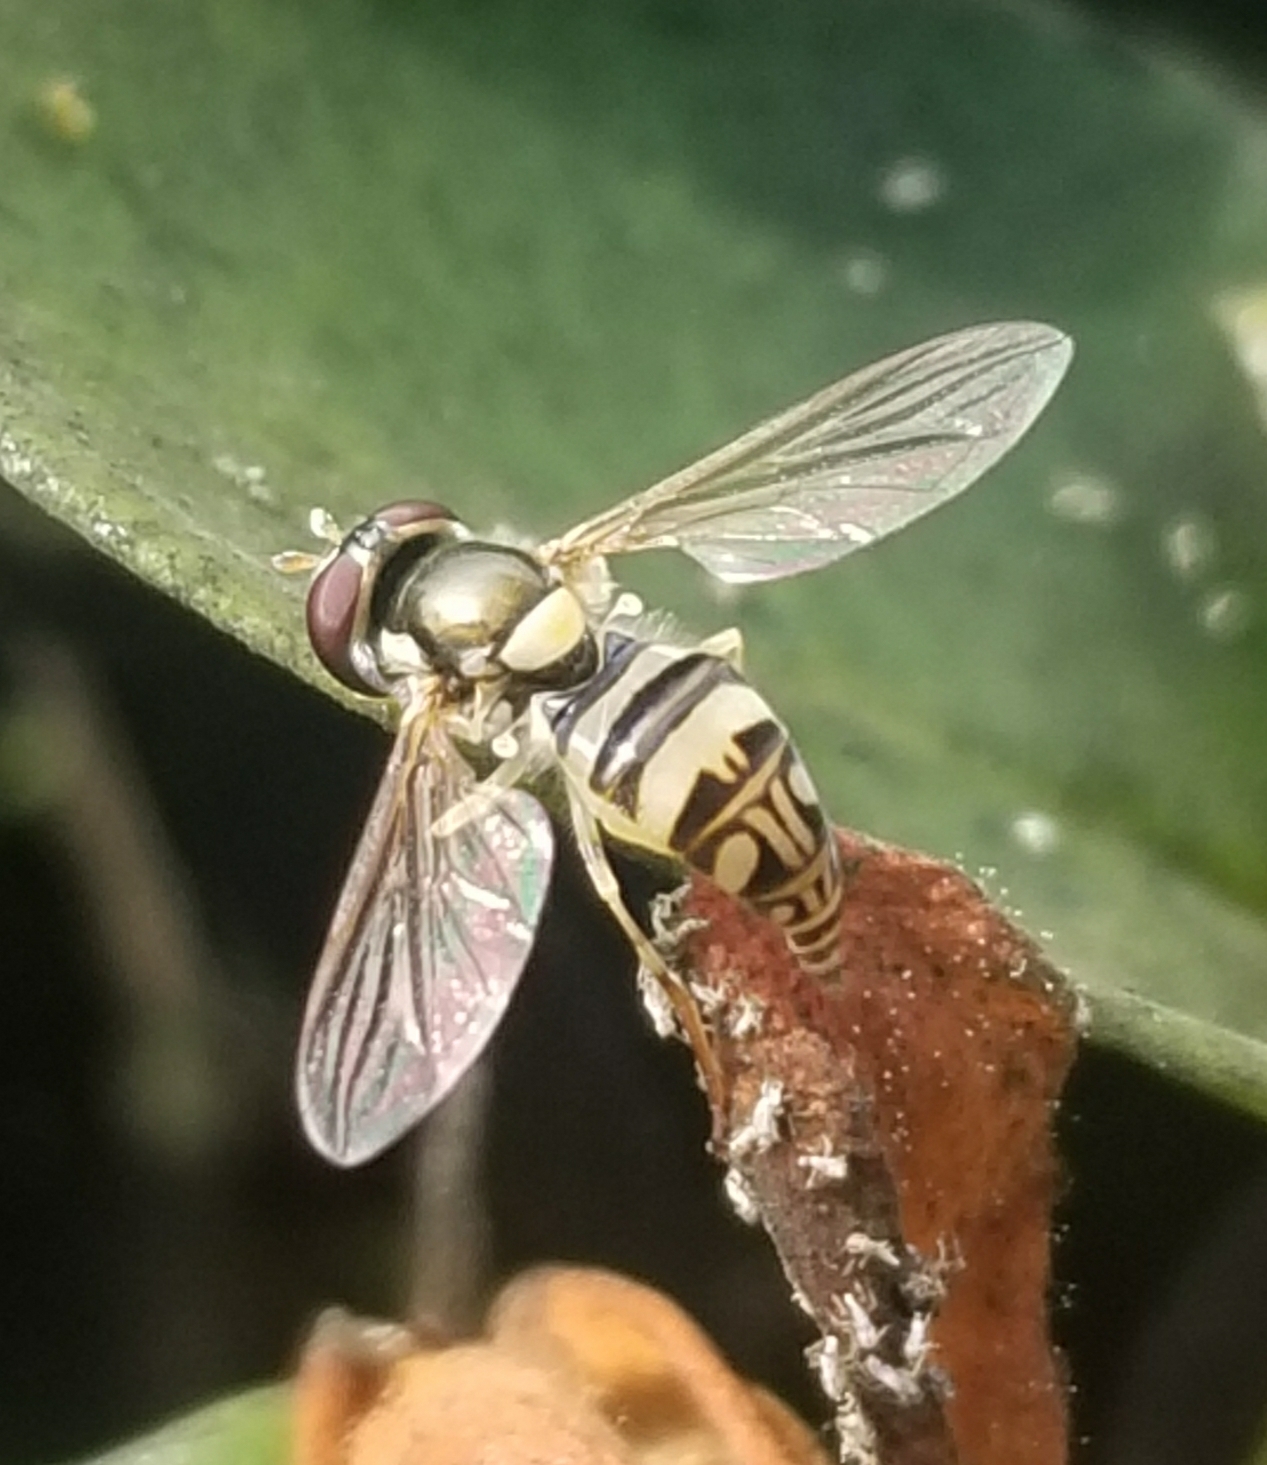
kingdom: Animalia
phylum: Arthropoda
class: Insecta
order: Diptera
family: Syrphidae
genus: Allograpta
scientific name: Allograpta exotica
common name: Syrphid fly
